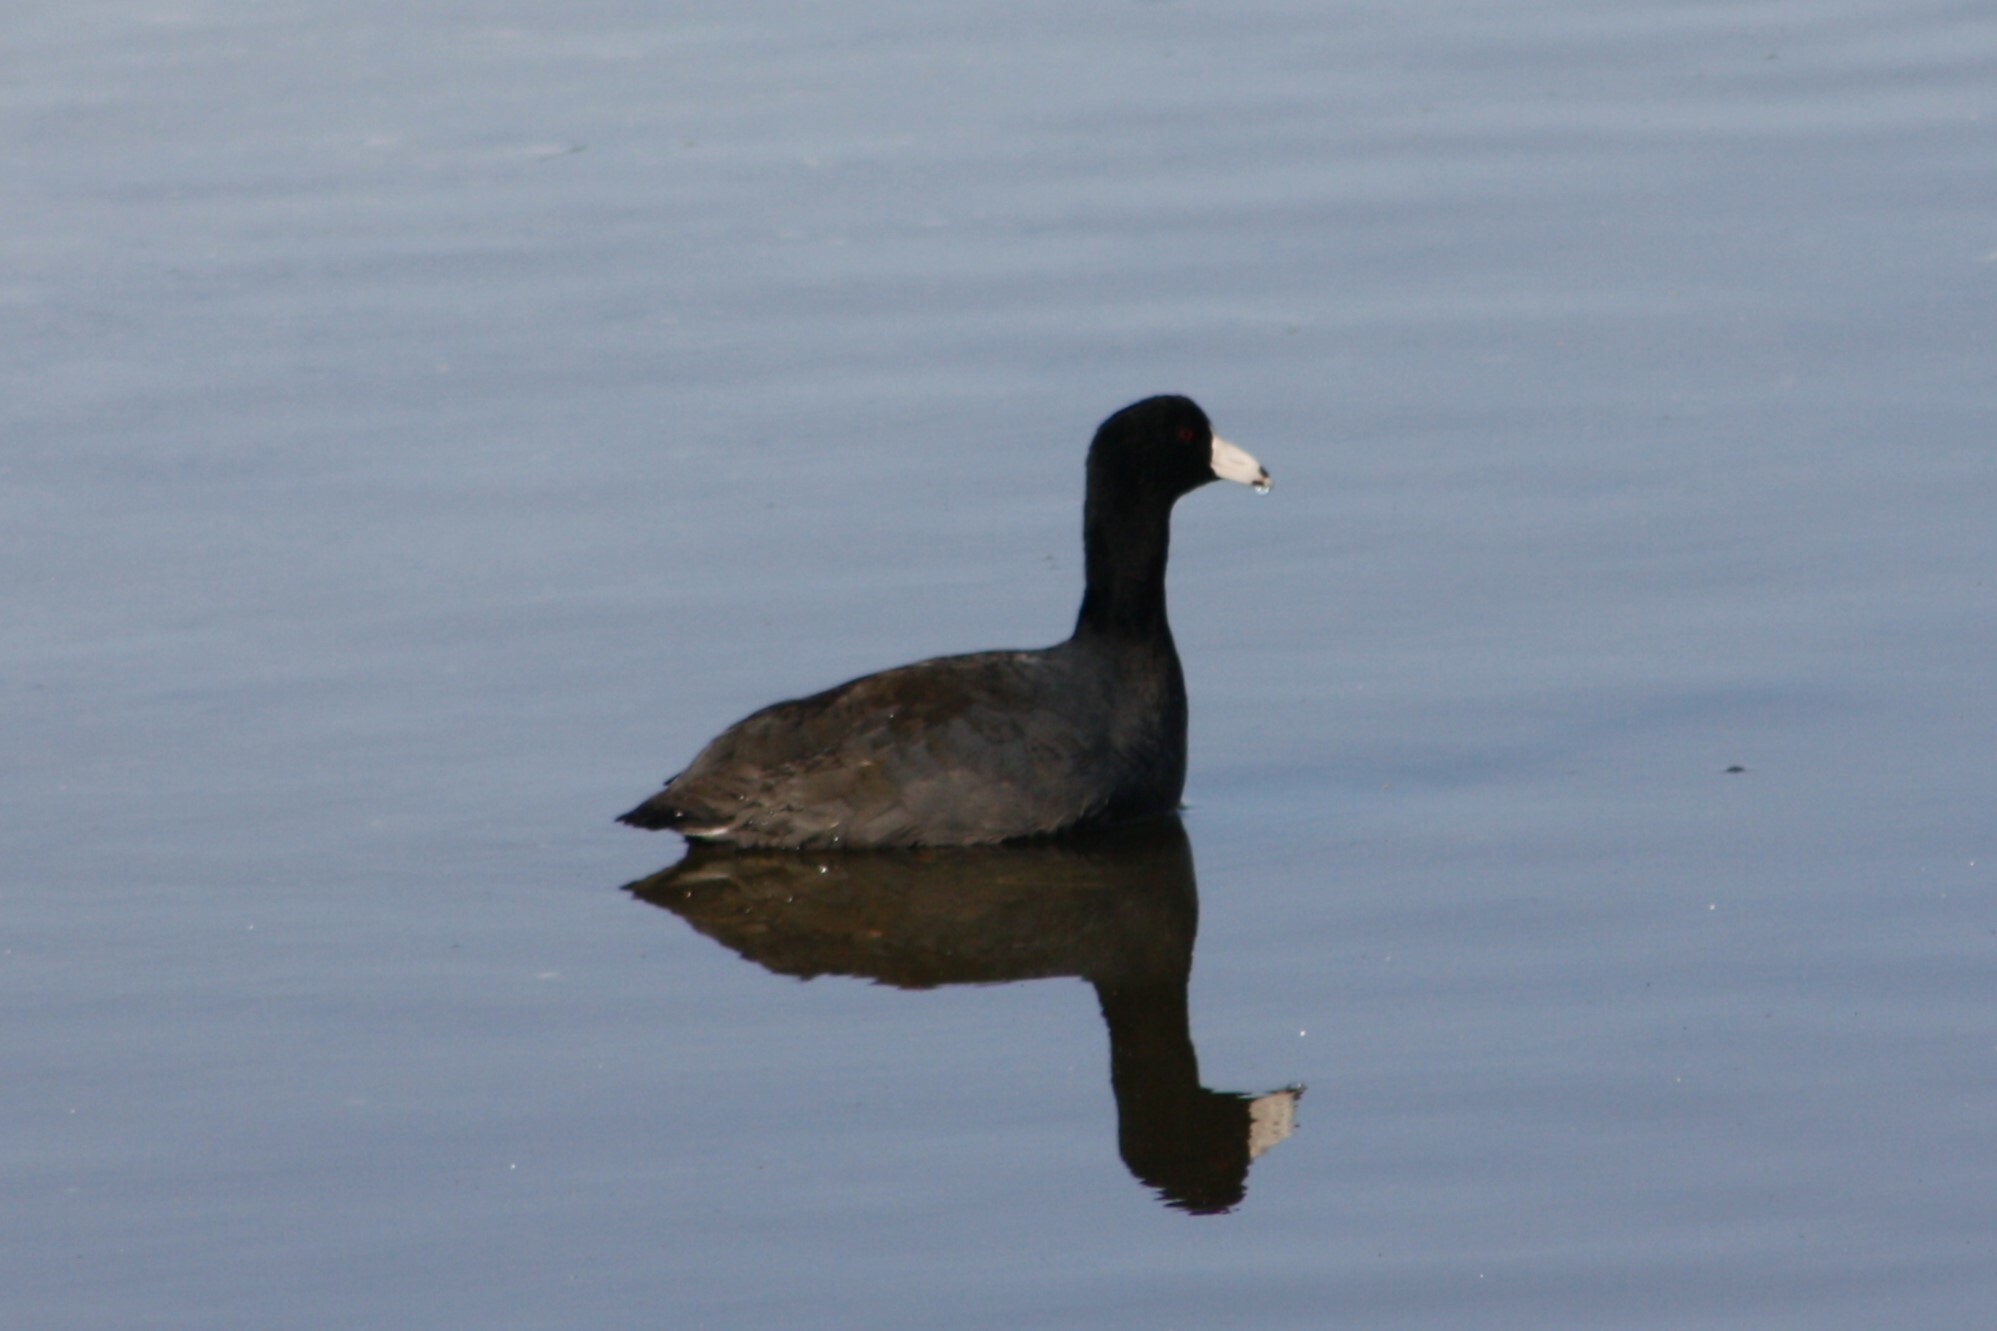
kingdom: Animalia
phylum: Chordata
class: Aves
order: Gruiformes
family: Rallidae
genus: Fulica
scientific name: Fulica americana
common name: American coot
